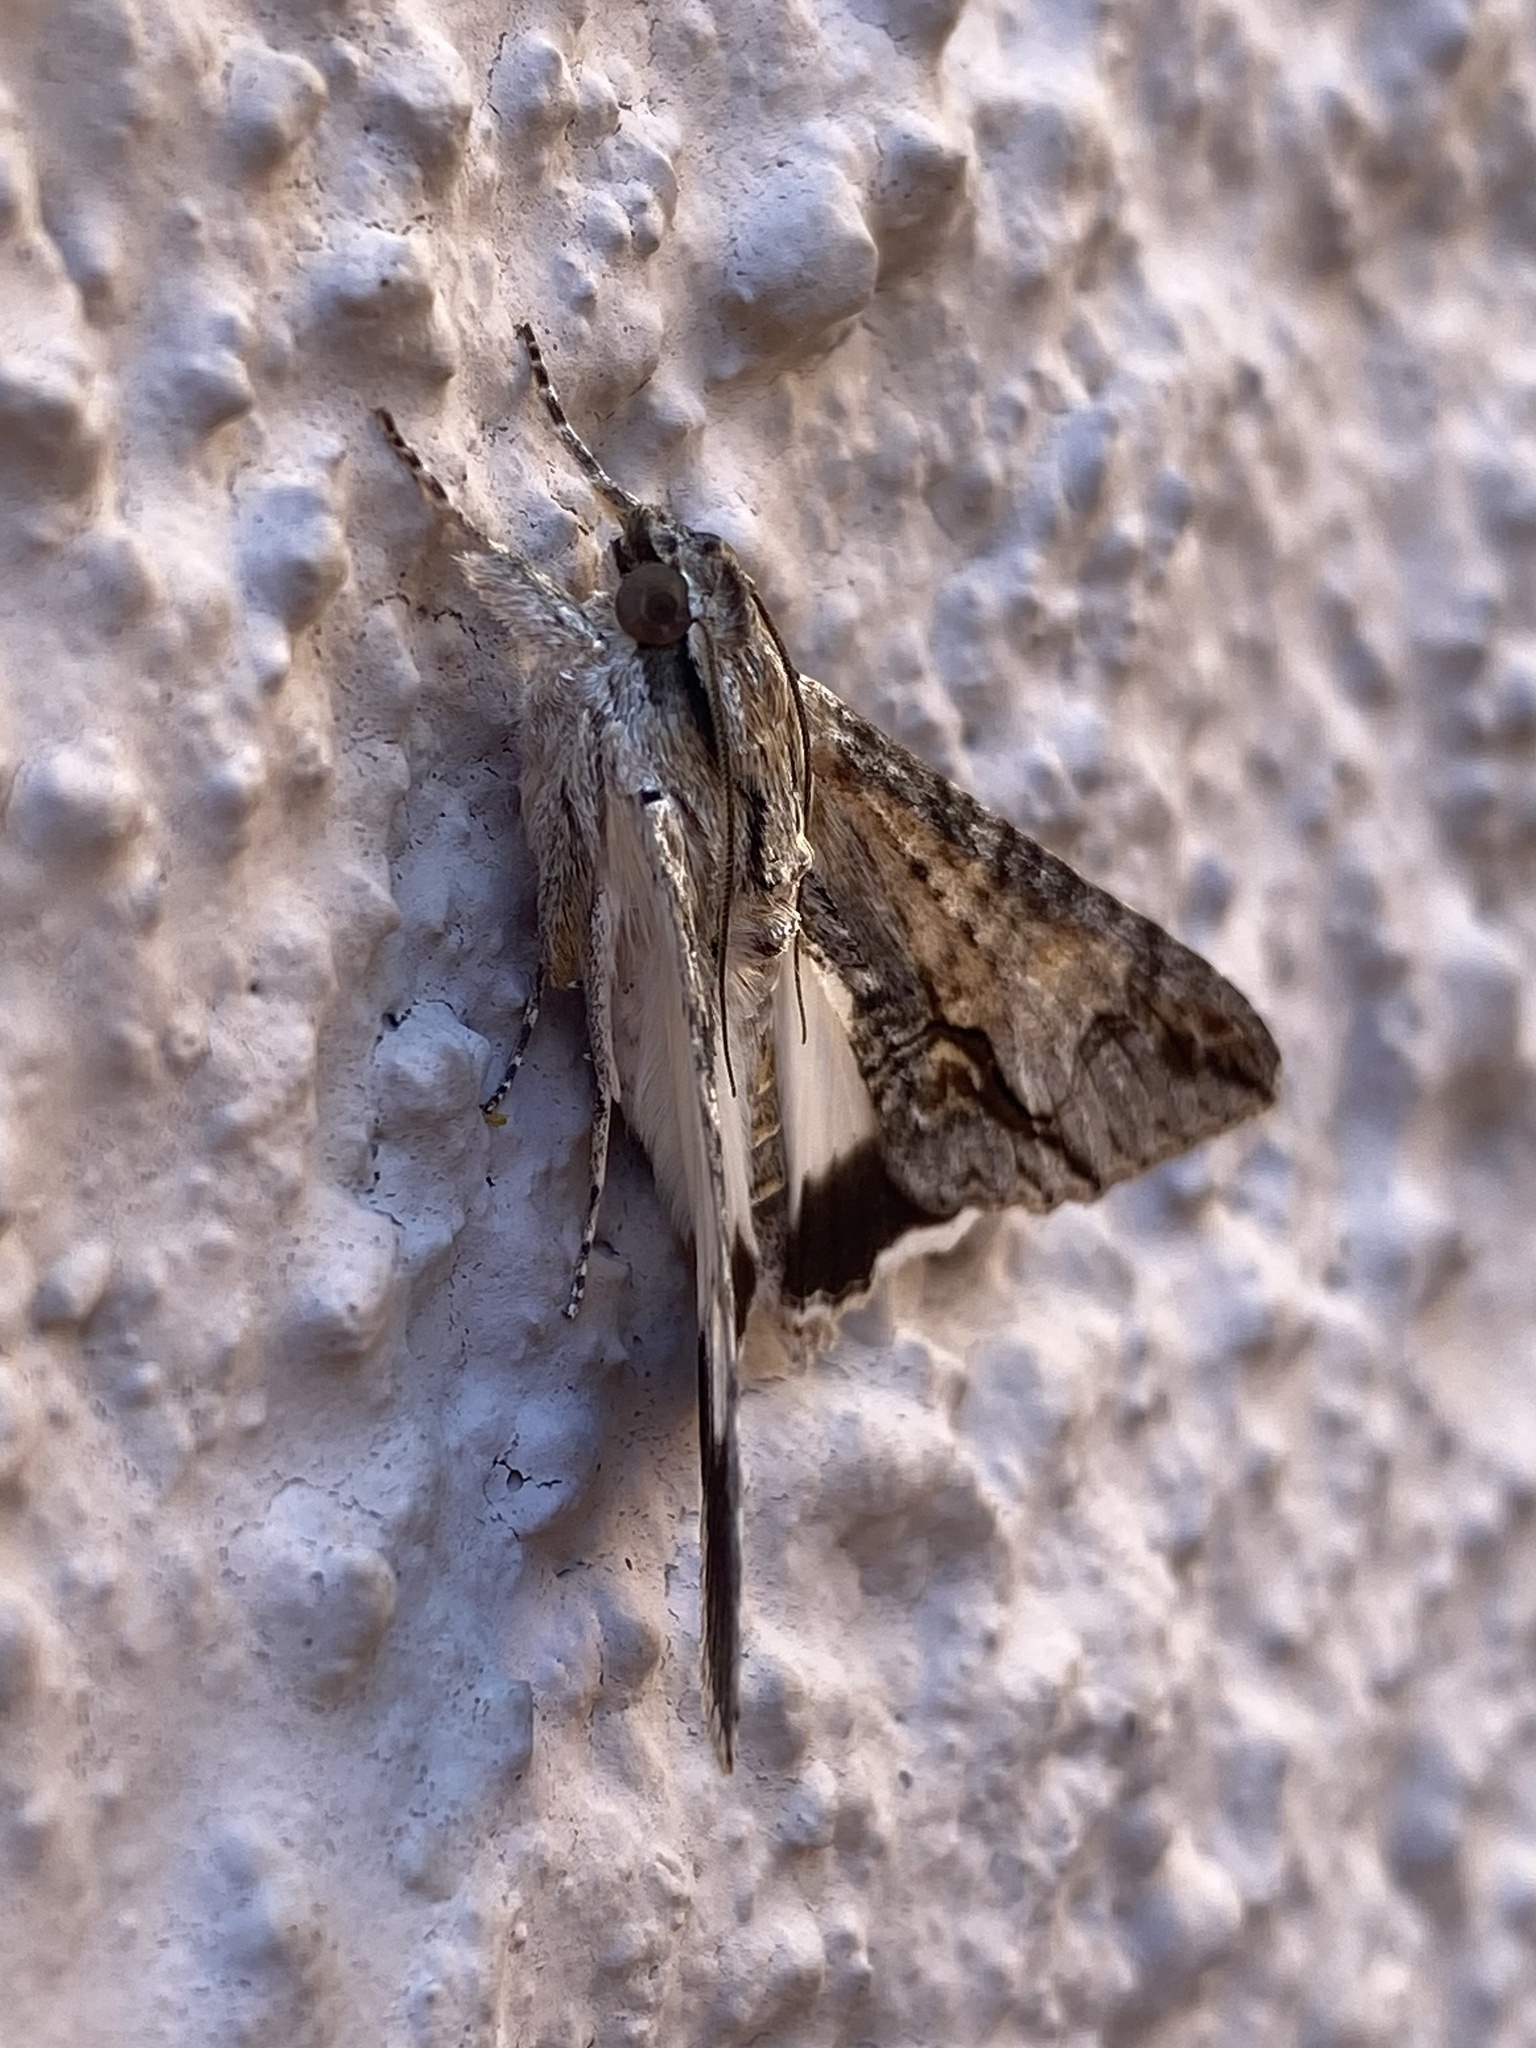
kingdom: Animalia
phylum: Arthropoda
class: Insecta
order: Lepidoptera
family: Erebidae
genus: Melipotis
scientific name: Melipotis acontioides
